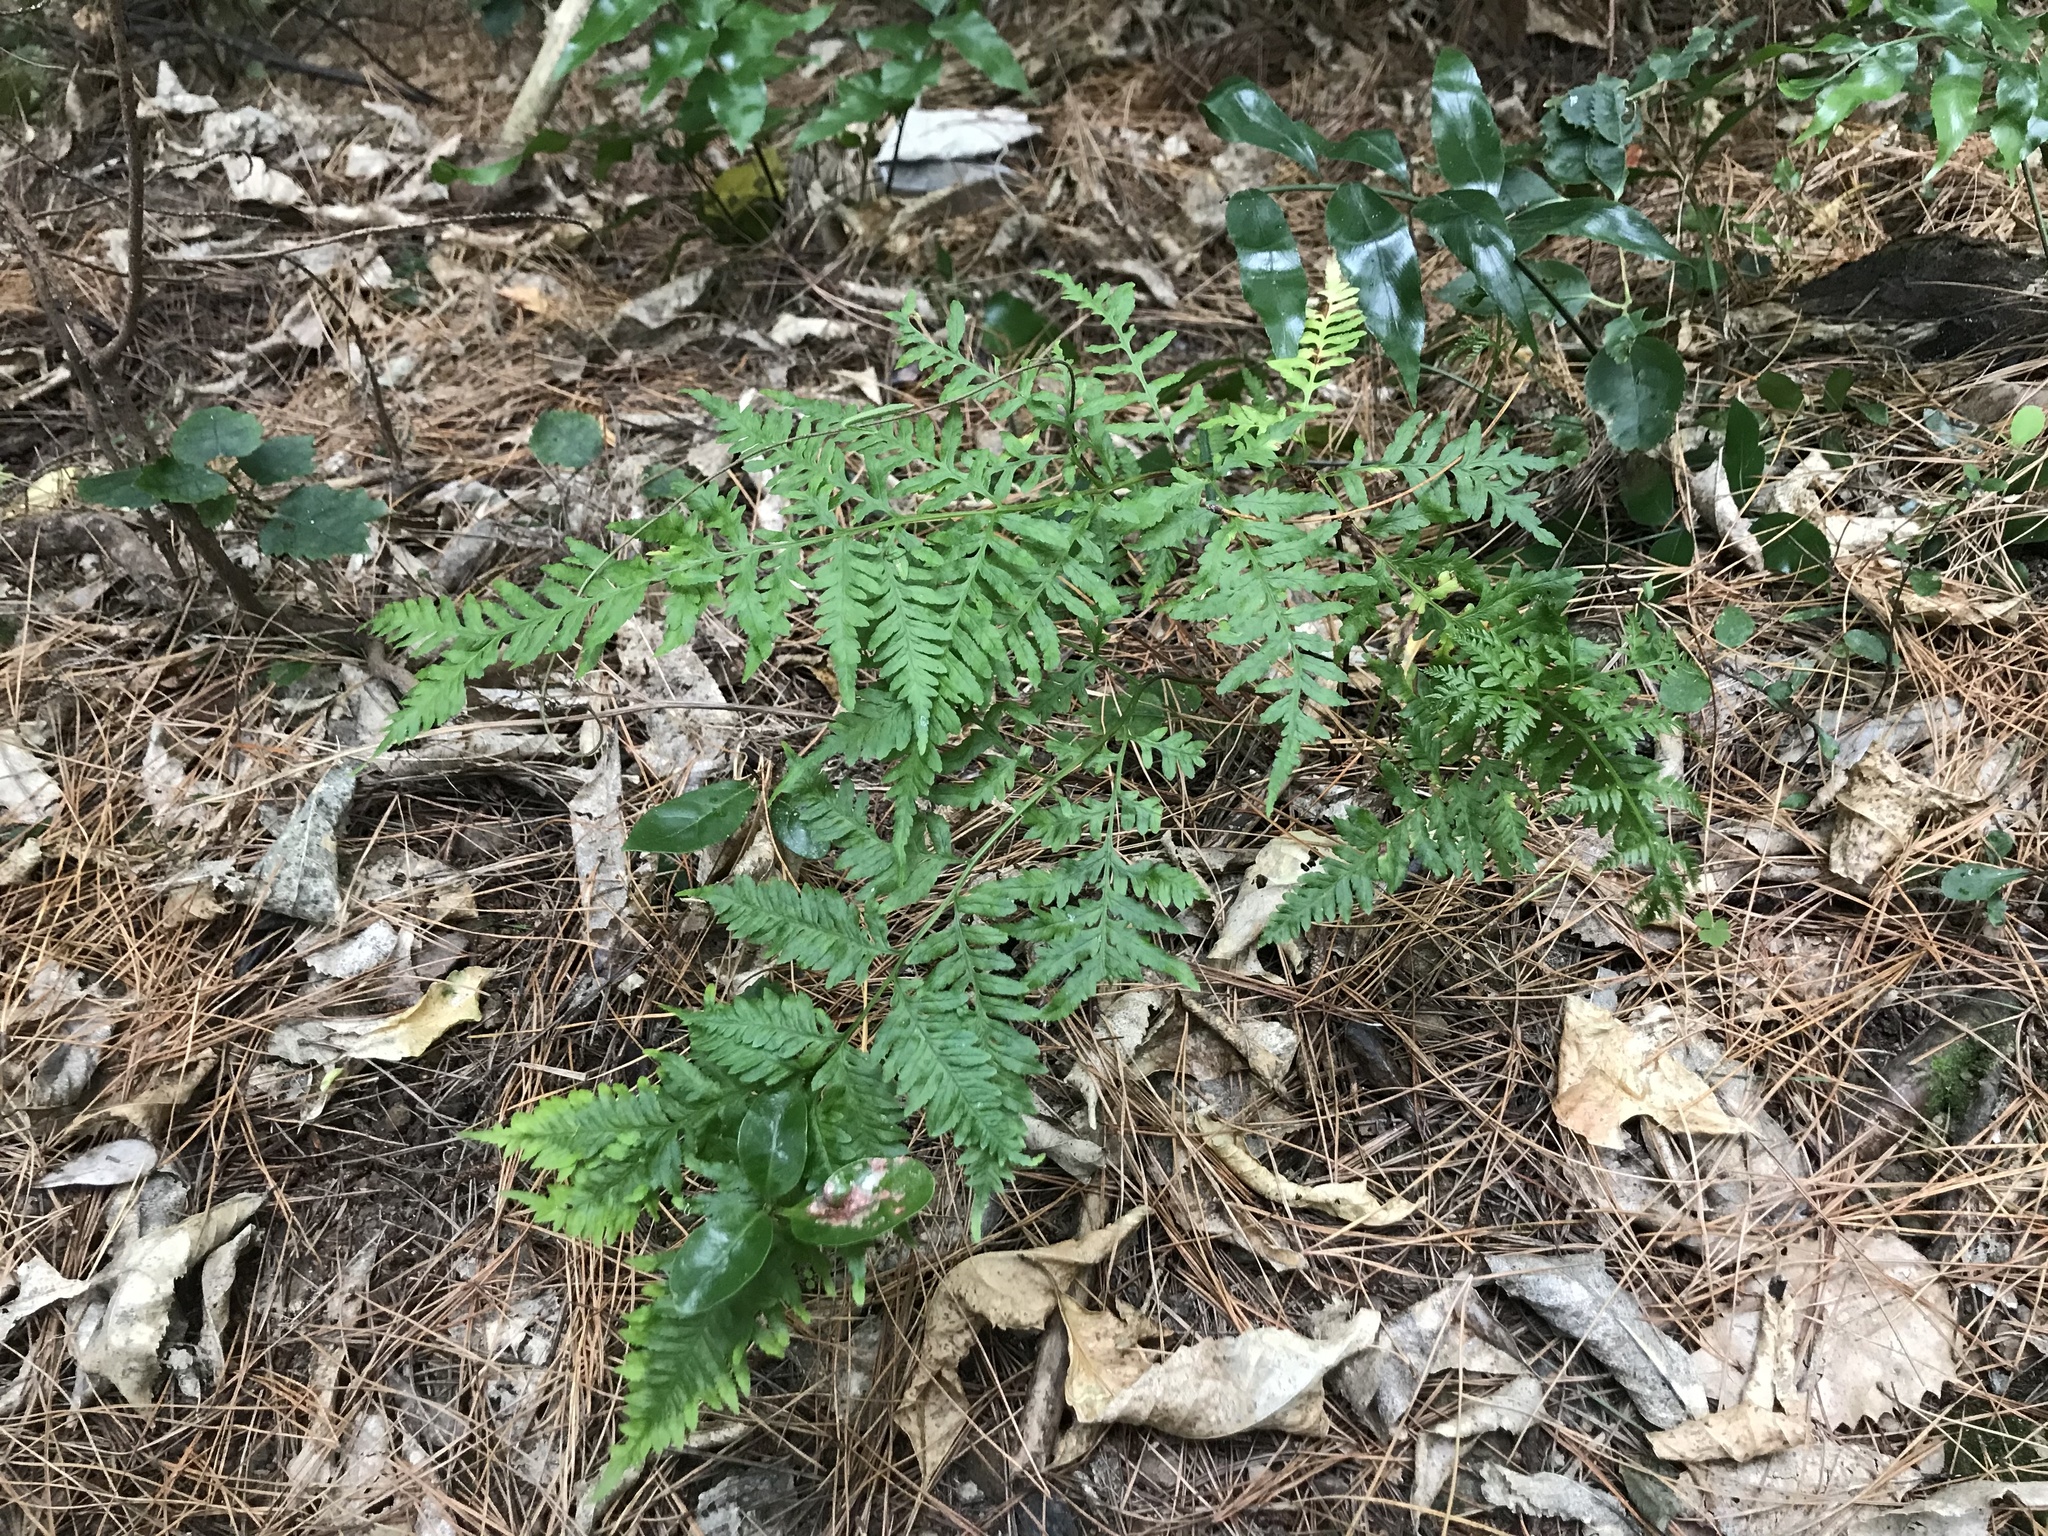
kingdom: Plantae
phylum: Tracheophyta
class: Polypodiopsida
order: Polypodiales
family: Pteridaceae
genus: Pteris
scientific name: Pteris tremula
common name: Australian brake
